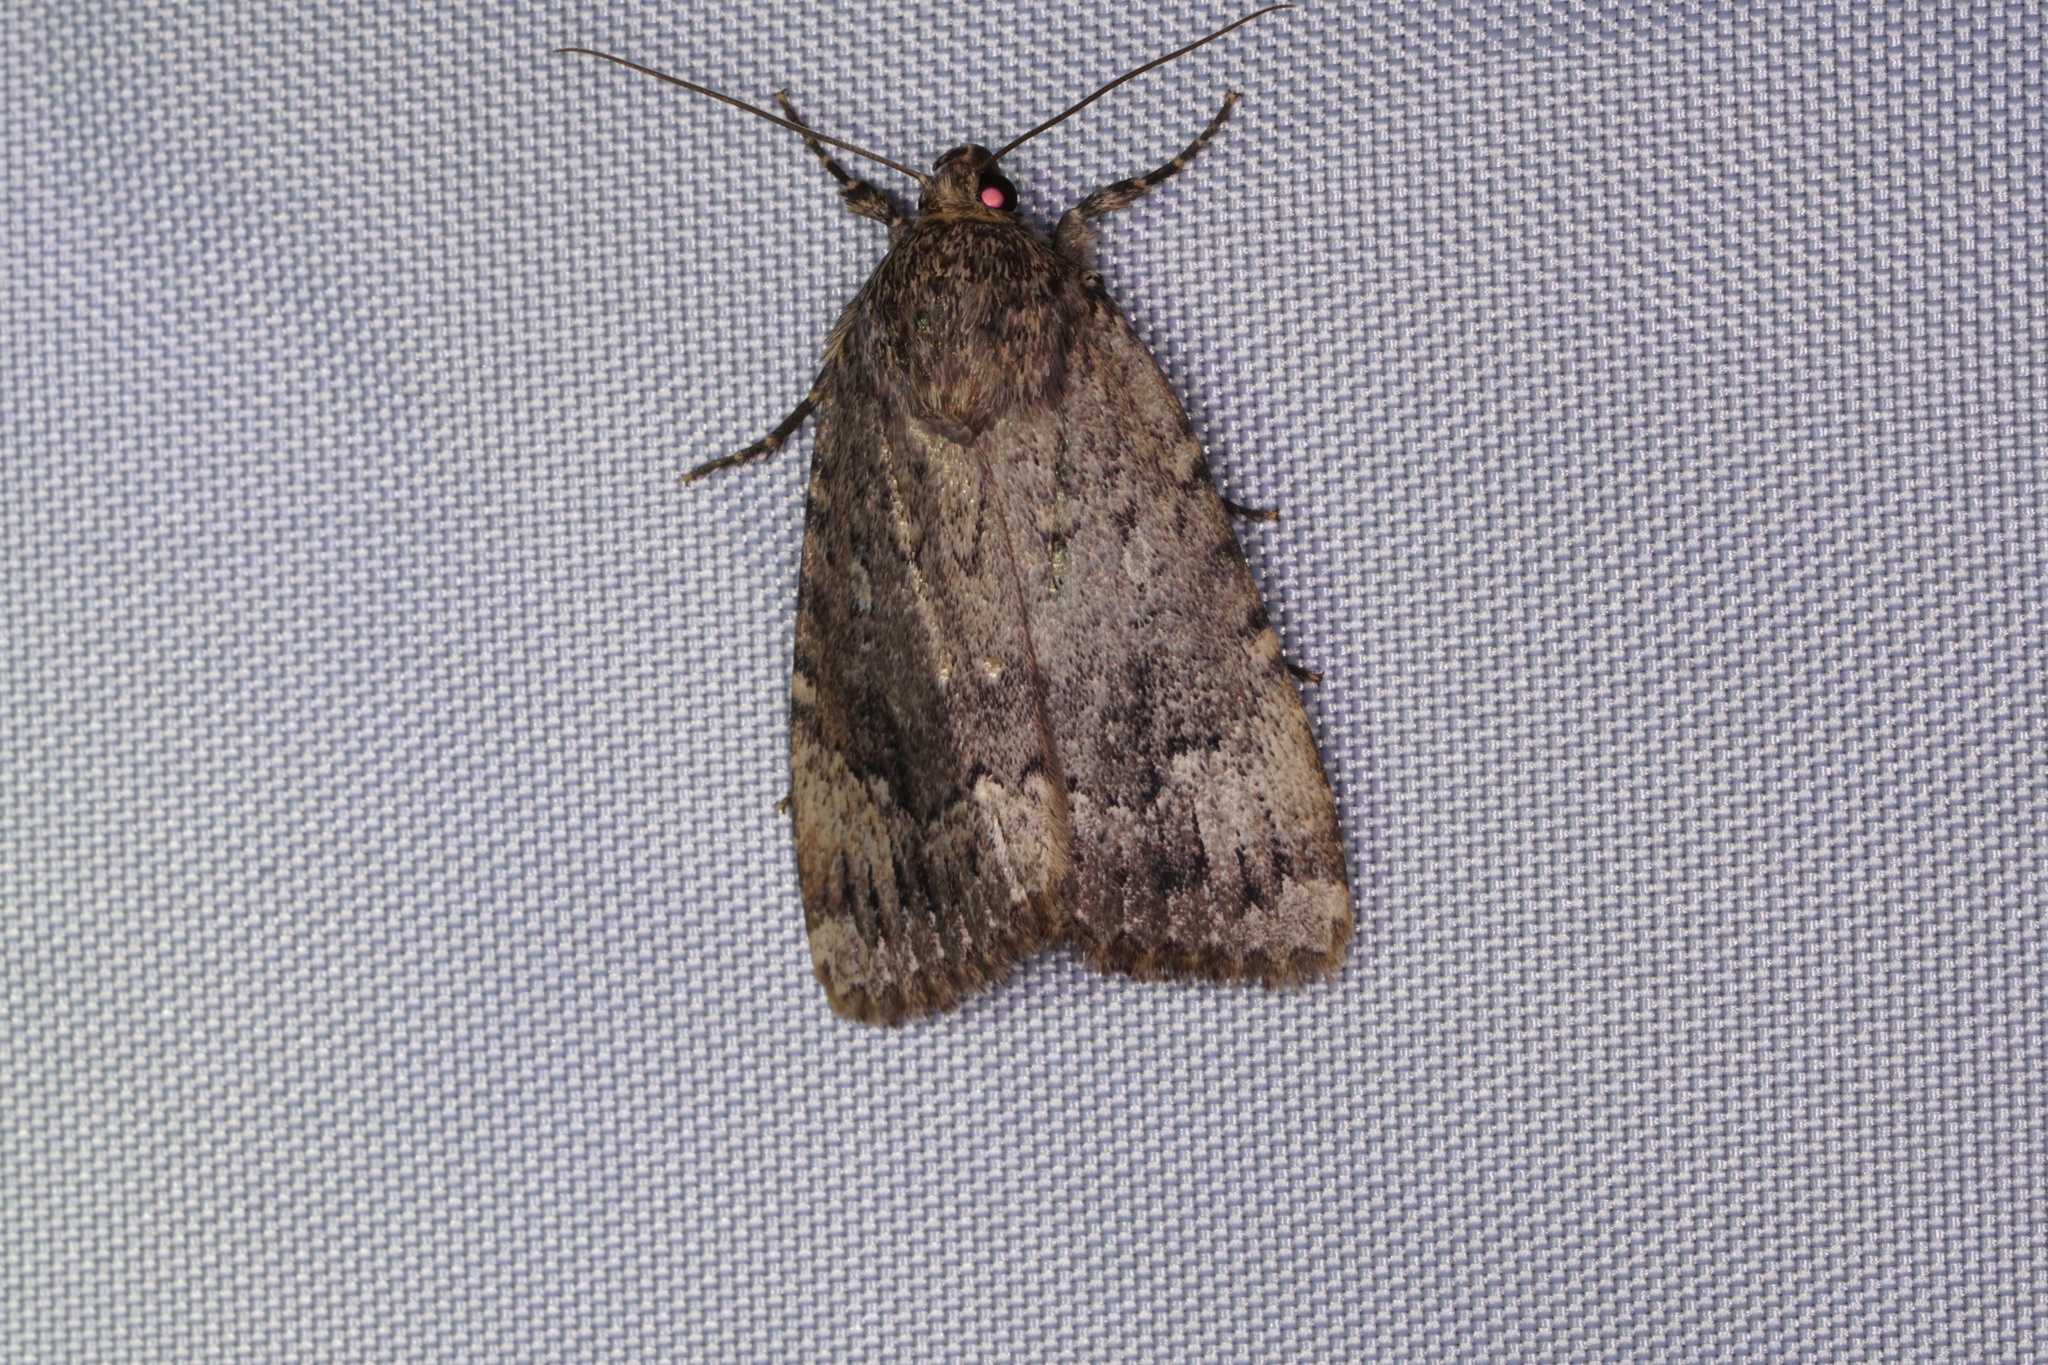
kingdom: Animalia
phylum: Arthropoda
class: Insecta
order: Lepidoptera
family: Noctuidae
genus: Amphipyra
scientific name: Amphipyra pyramidoides
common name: American copper underwing
